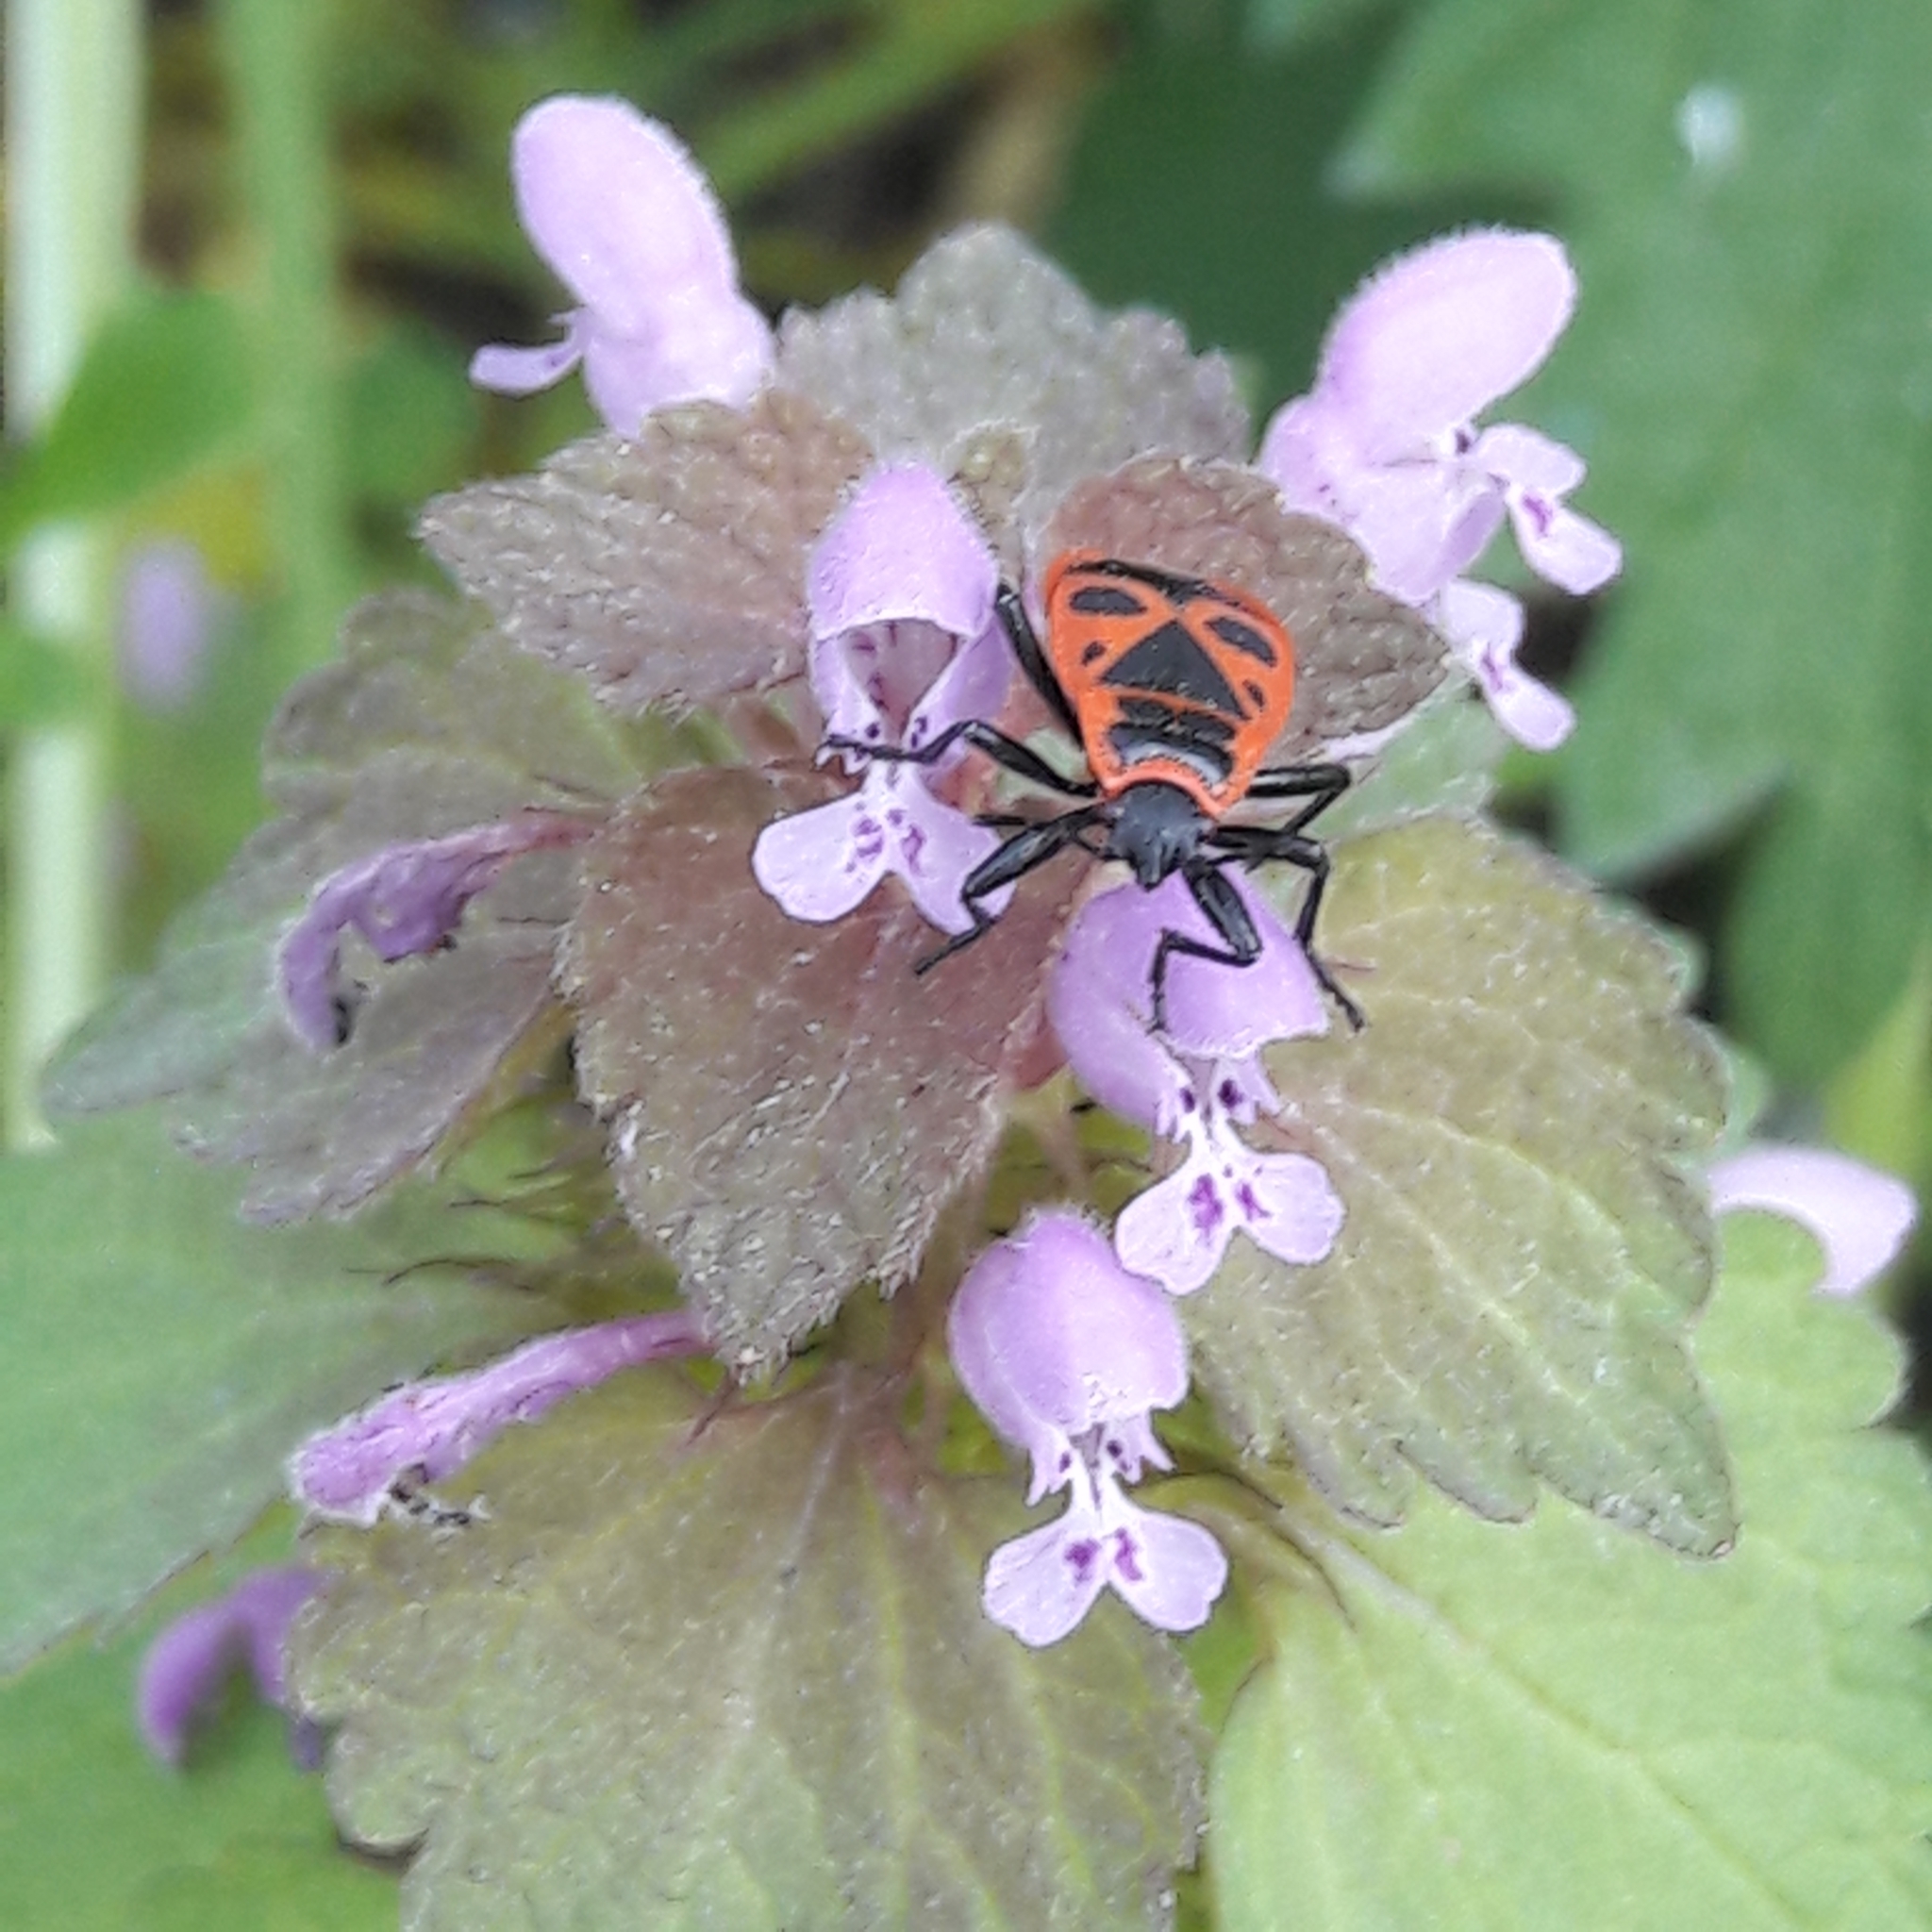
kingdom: Animalia
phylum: Arthropoda
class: Insecta
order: Hemiptera
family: Pyrrhocoridae
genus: Pyrrhocoris
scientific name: Pyrrhocoris apterus
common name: Firebug
